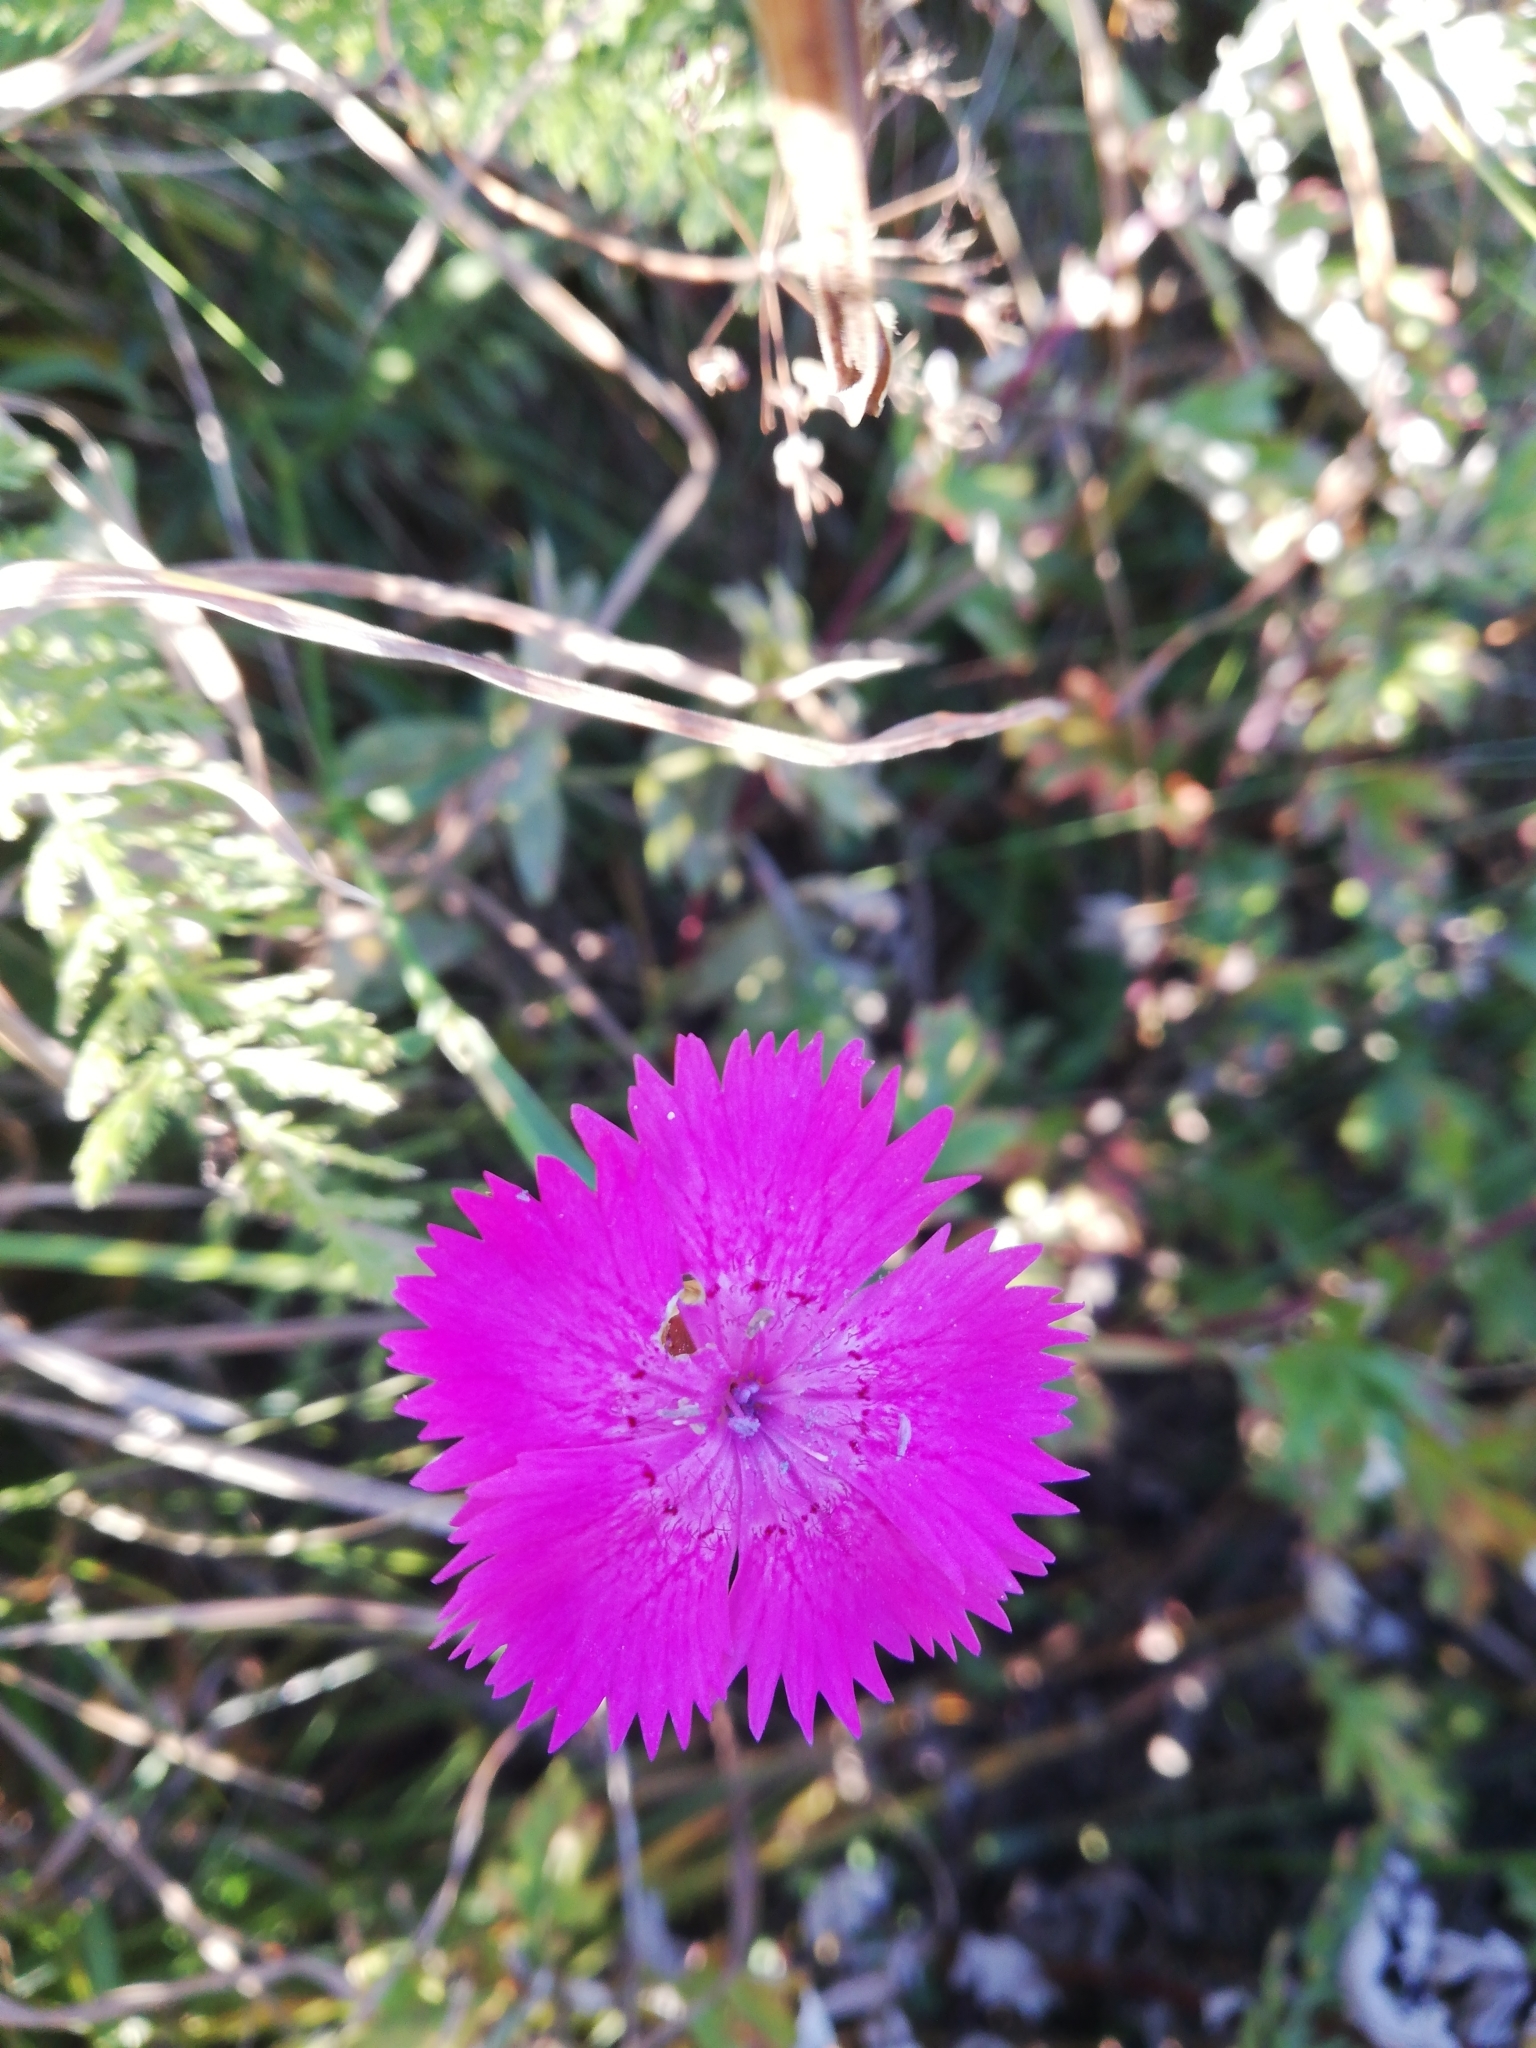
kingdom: Plantae
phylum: Tracheophyta
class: Magnoliopsida
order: Caryophyllales
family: Caryophyllaceae
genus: Dianthus
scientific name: Dianthus seguieri
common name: Ragged pink
